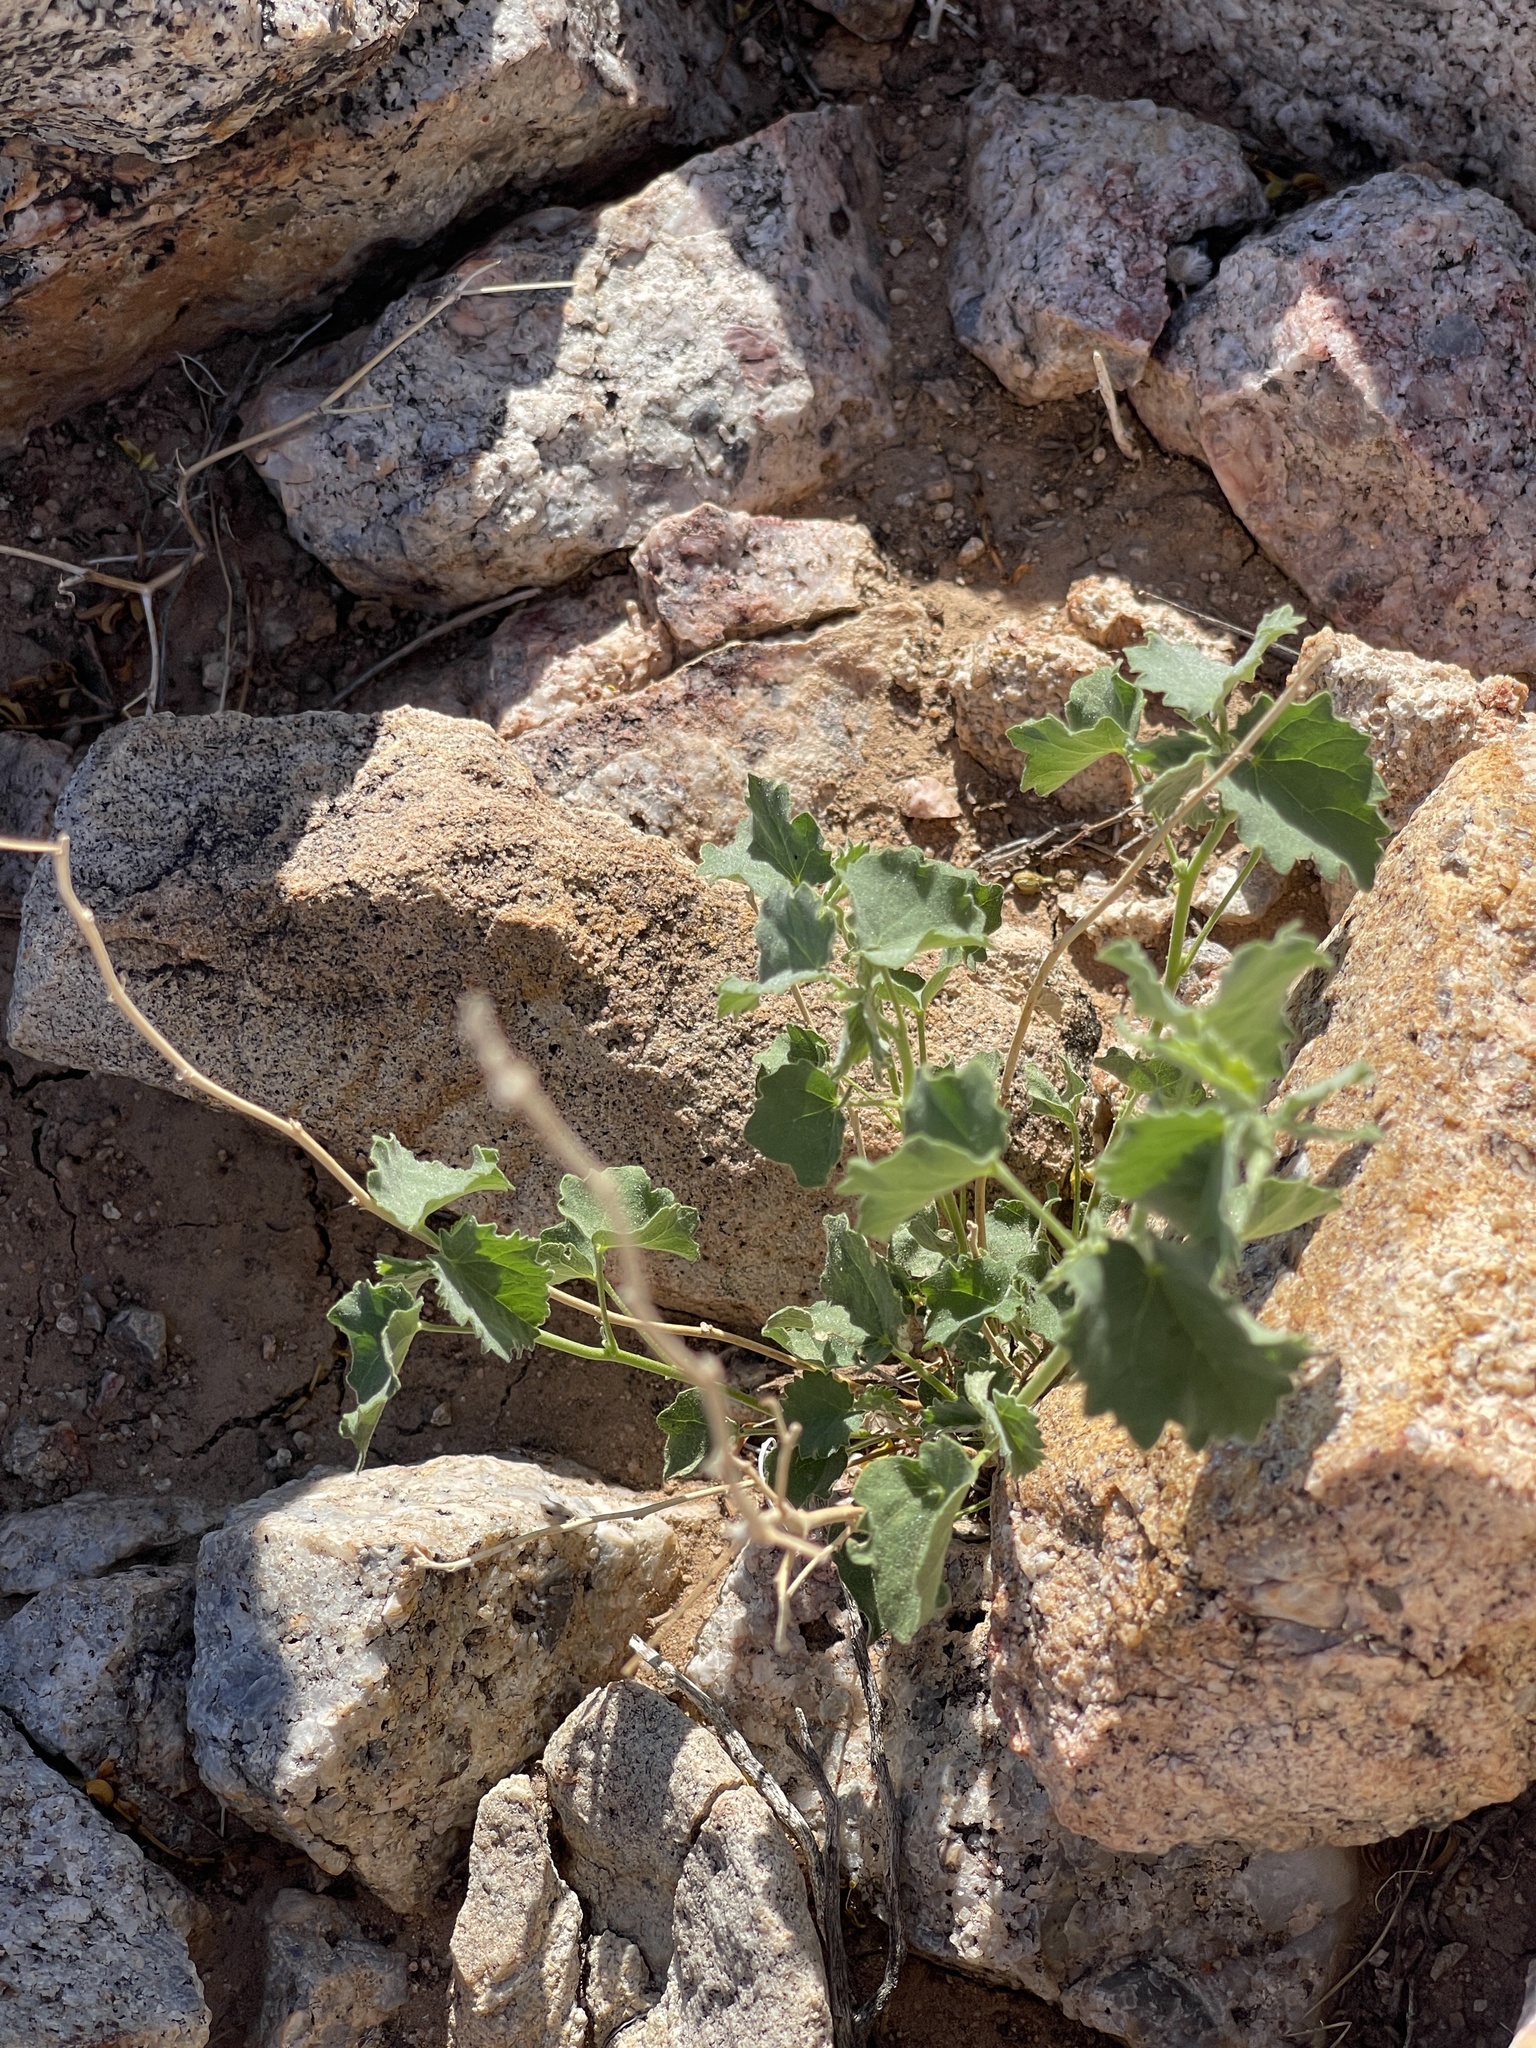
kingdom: Plantae
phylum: Tracheophyta
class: Magnoliopsida
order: Solanales
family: Solanaceae
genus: Physalis
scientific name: Physalis hederifolia
